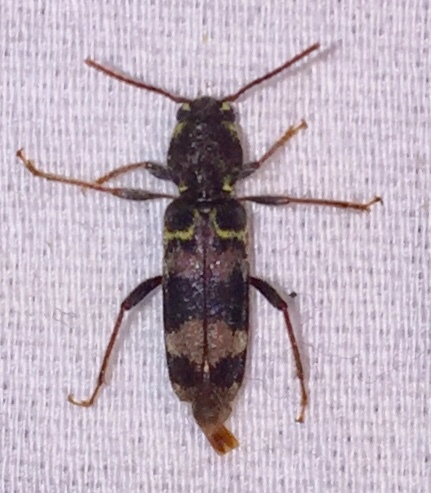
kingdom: Animalia
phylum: Arthropoda
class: Insecta
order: Coleoptera
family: Cerambycidae
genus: Xylotrechus
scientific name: Xylotrechus colonus
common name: Long-horned beetle
